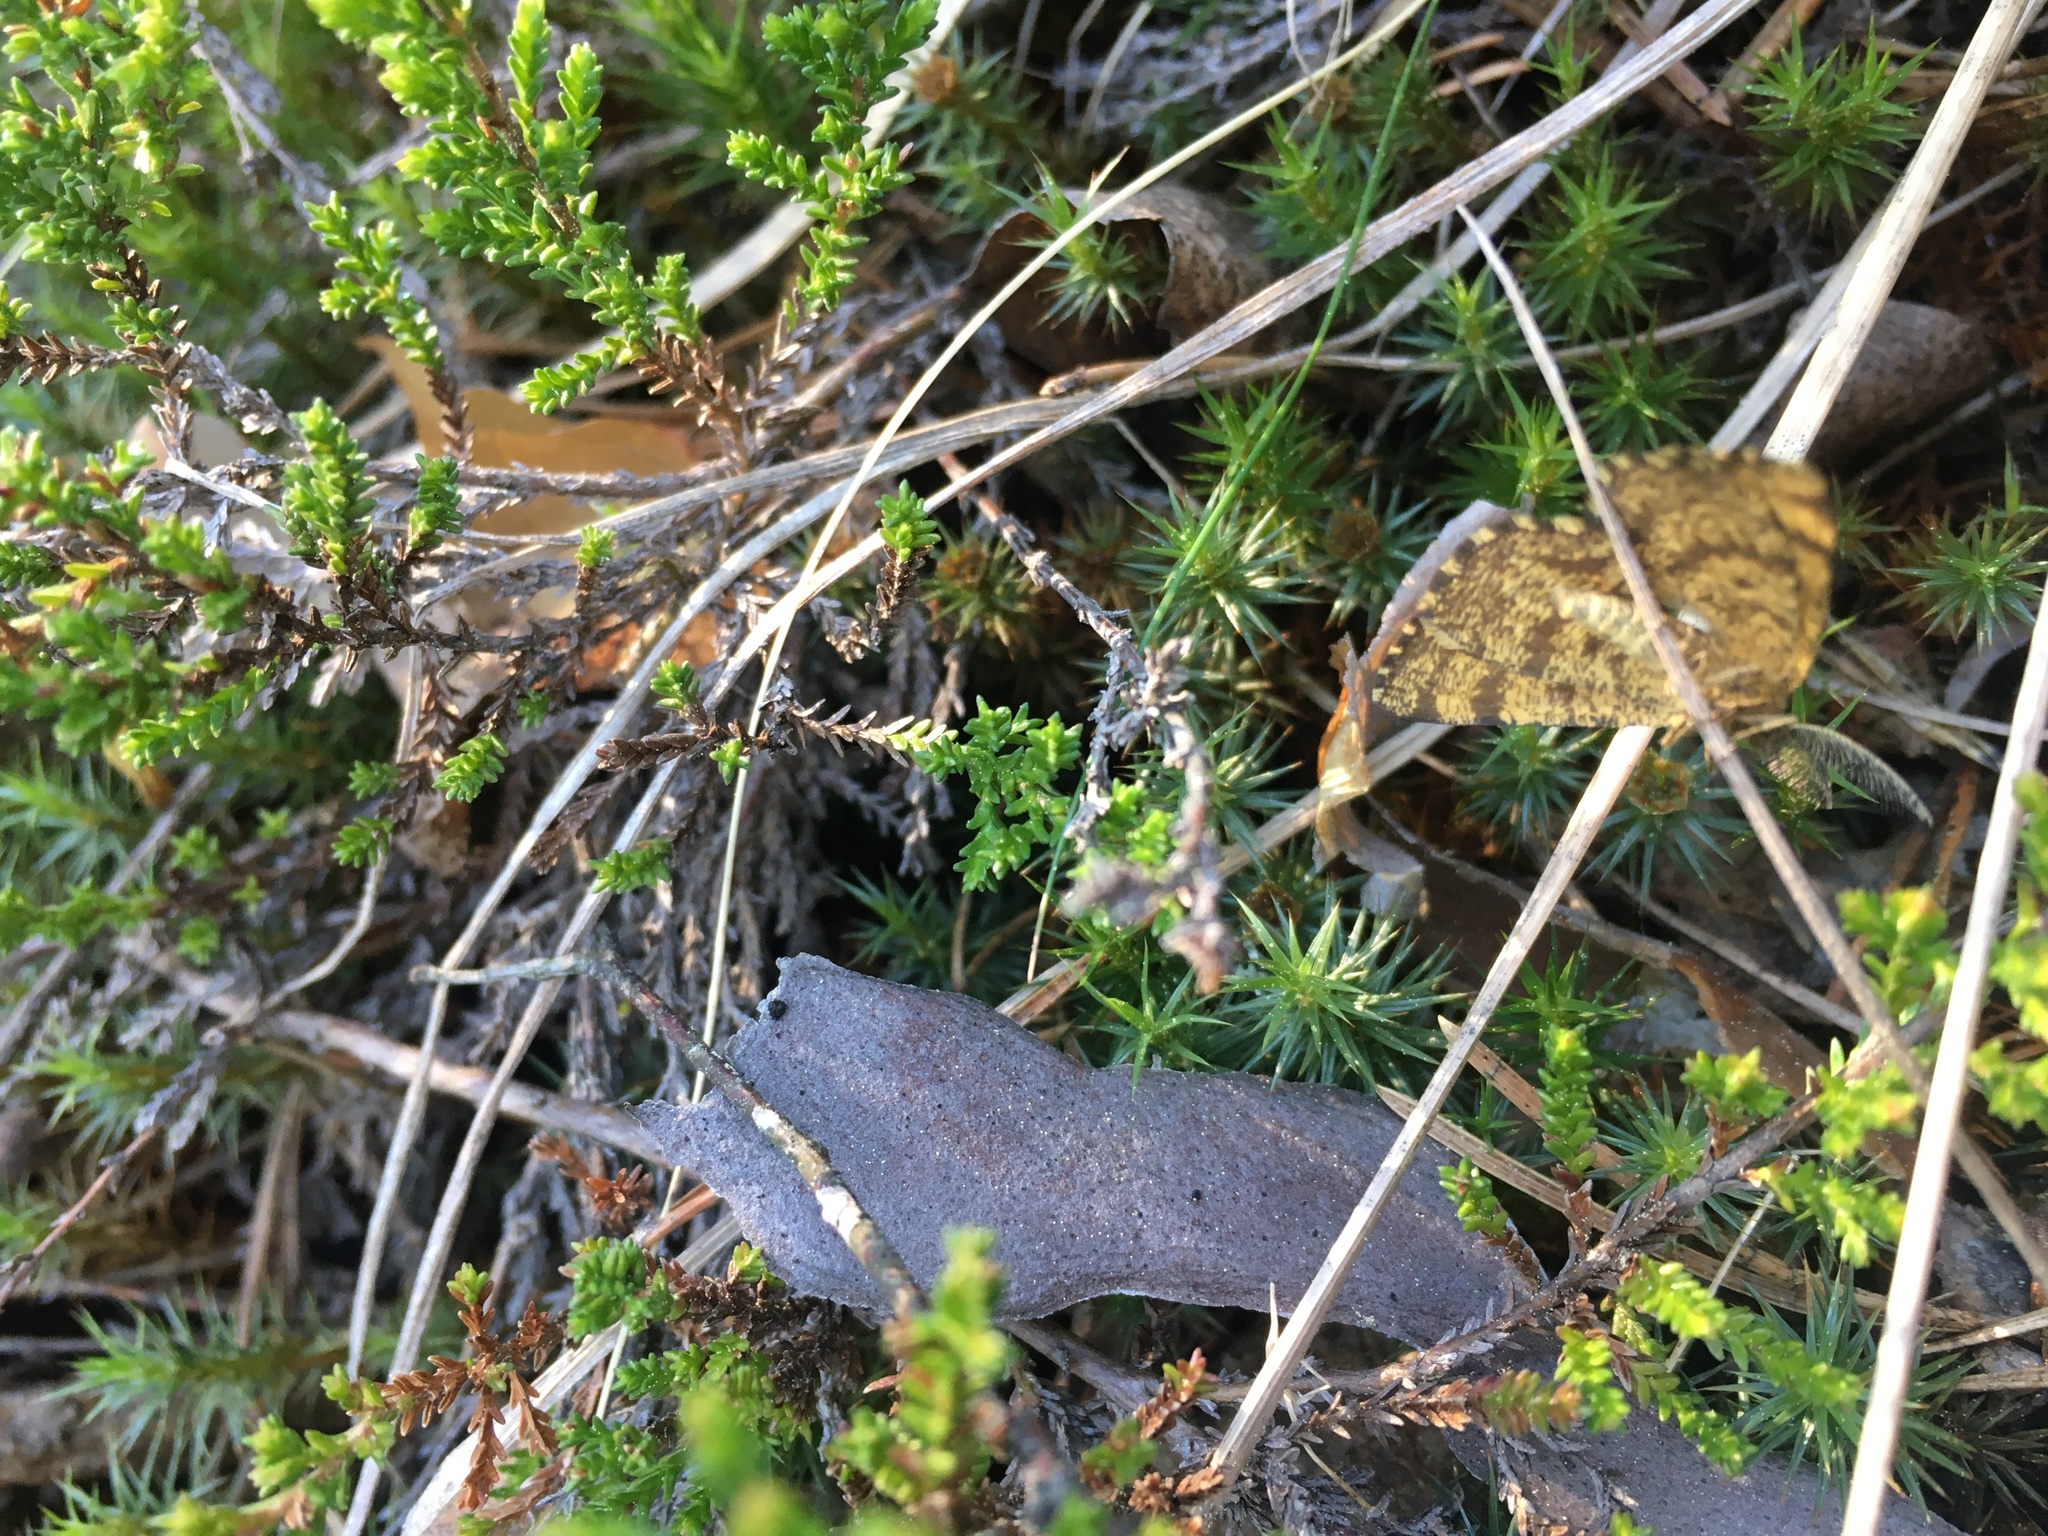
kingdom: Animalia
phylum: Arthropoda
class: Insecta
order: Lepidoptera
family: Geometridae
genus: Ematurga
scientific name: Ematurga atomaria
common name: Common heath
